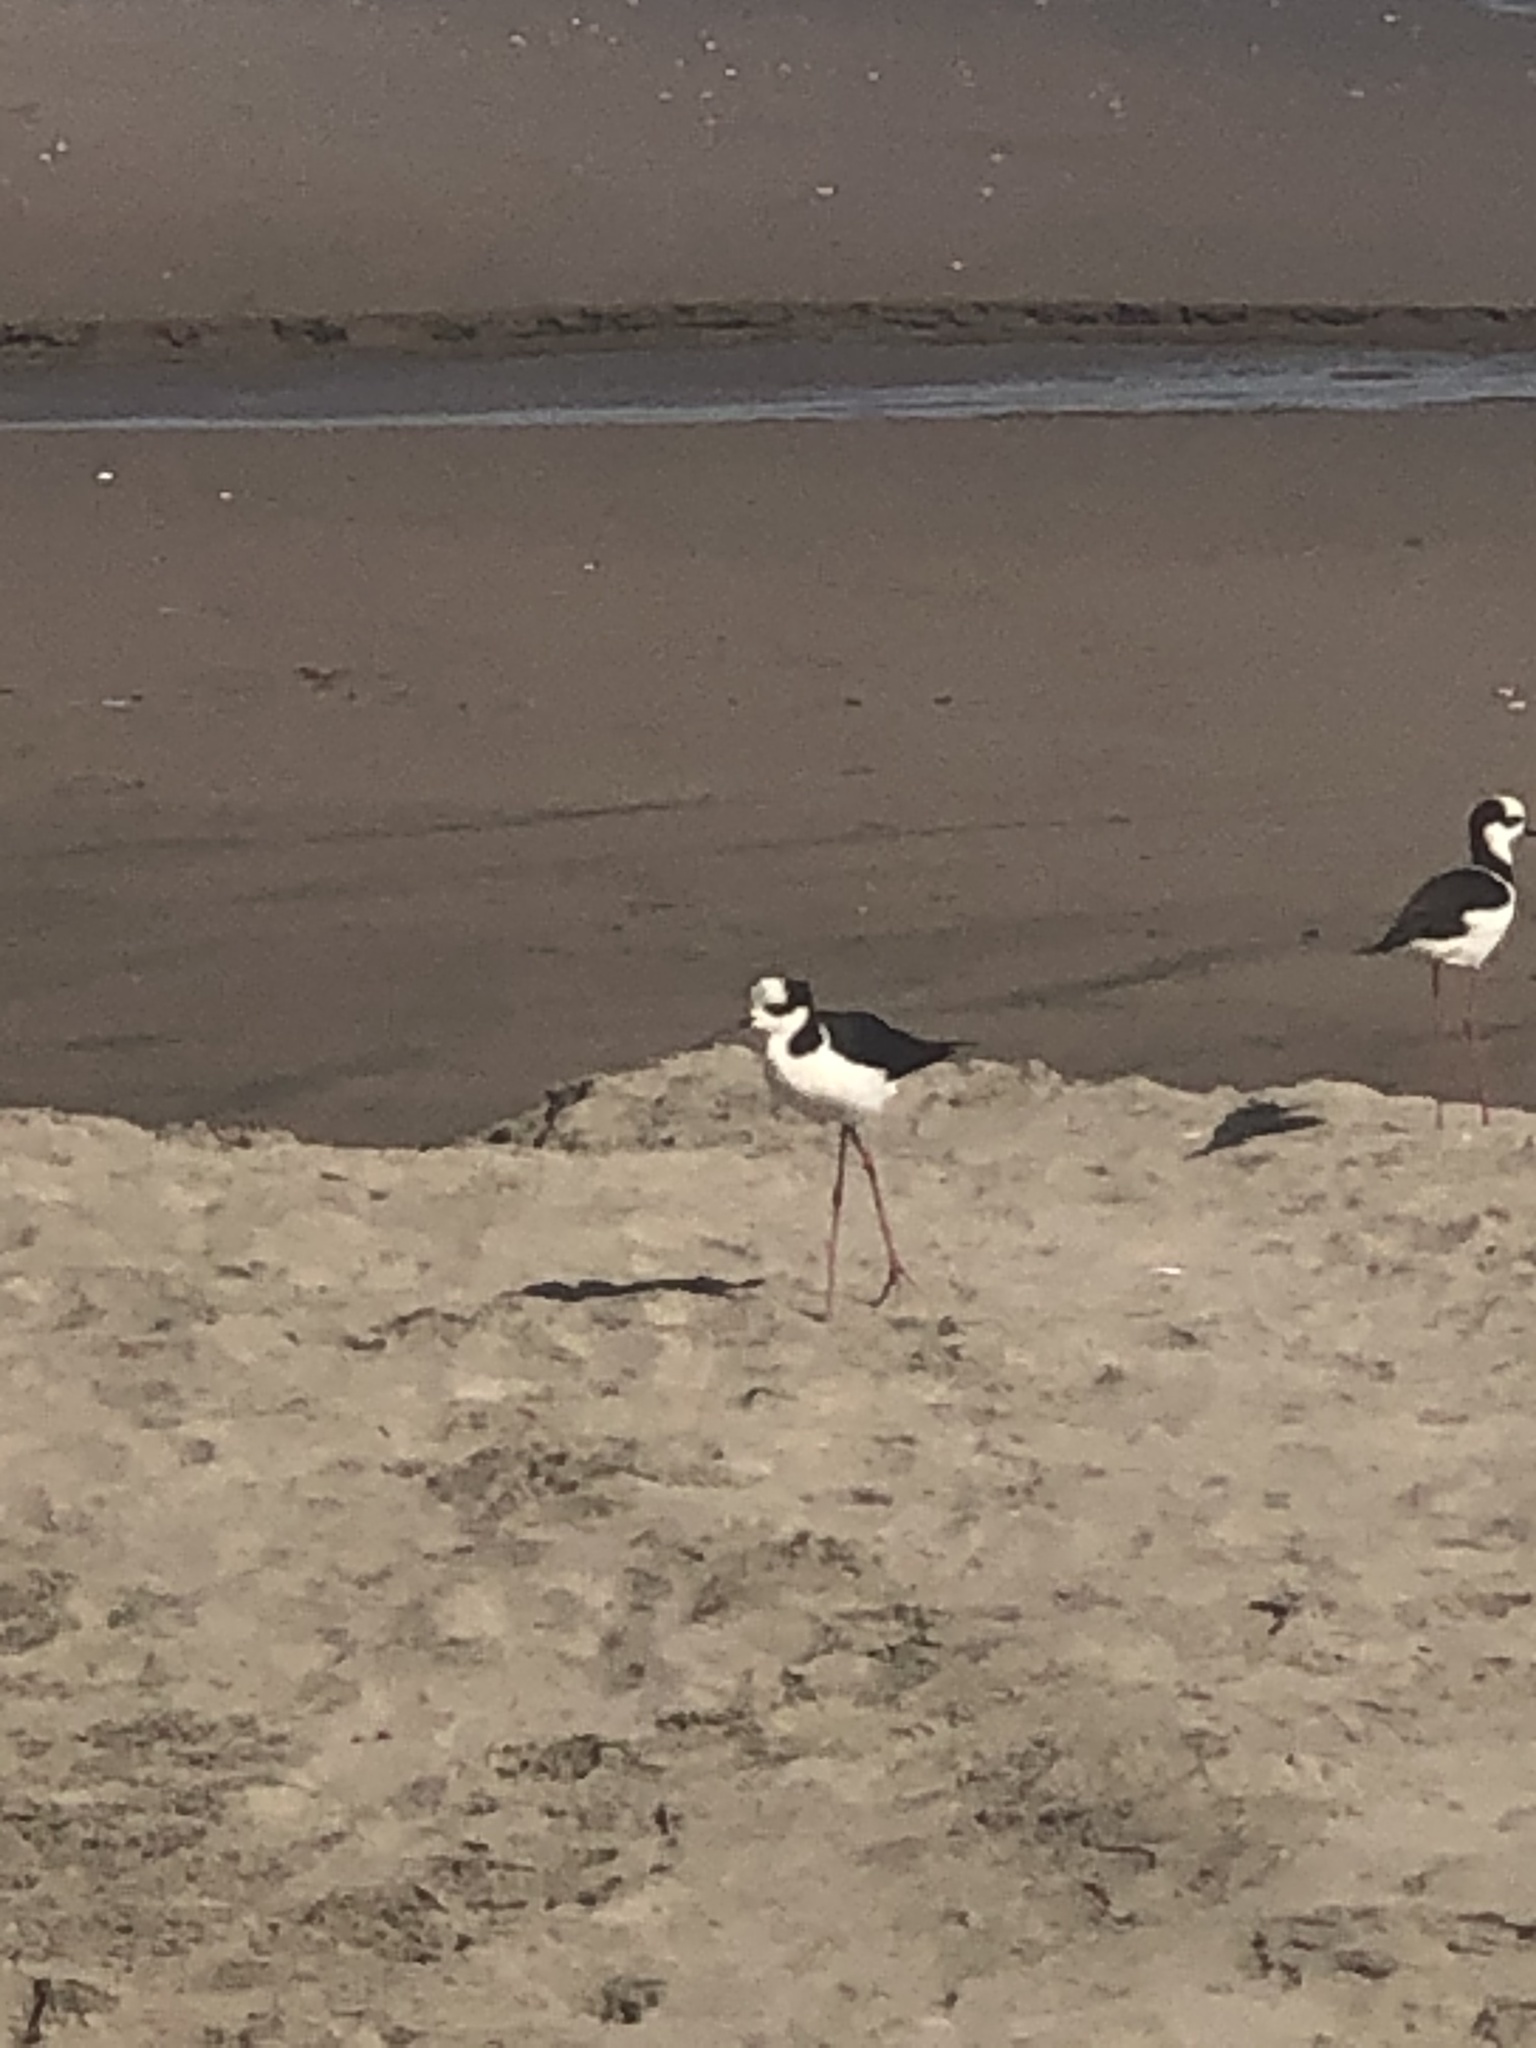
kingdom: Animalia
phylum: Chordata
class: Aves
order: Charadriiformes
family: Recurvirostridae
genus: Himantopus
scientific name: Himantopus mexicanus
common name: Black-necked stilt
